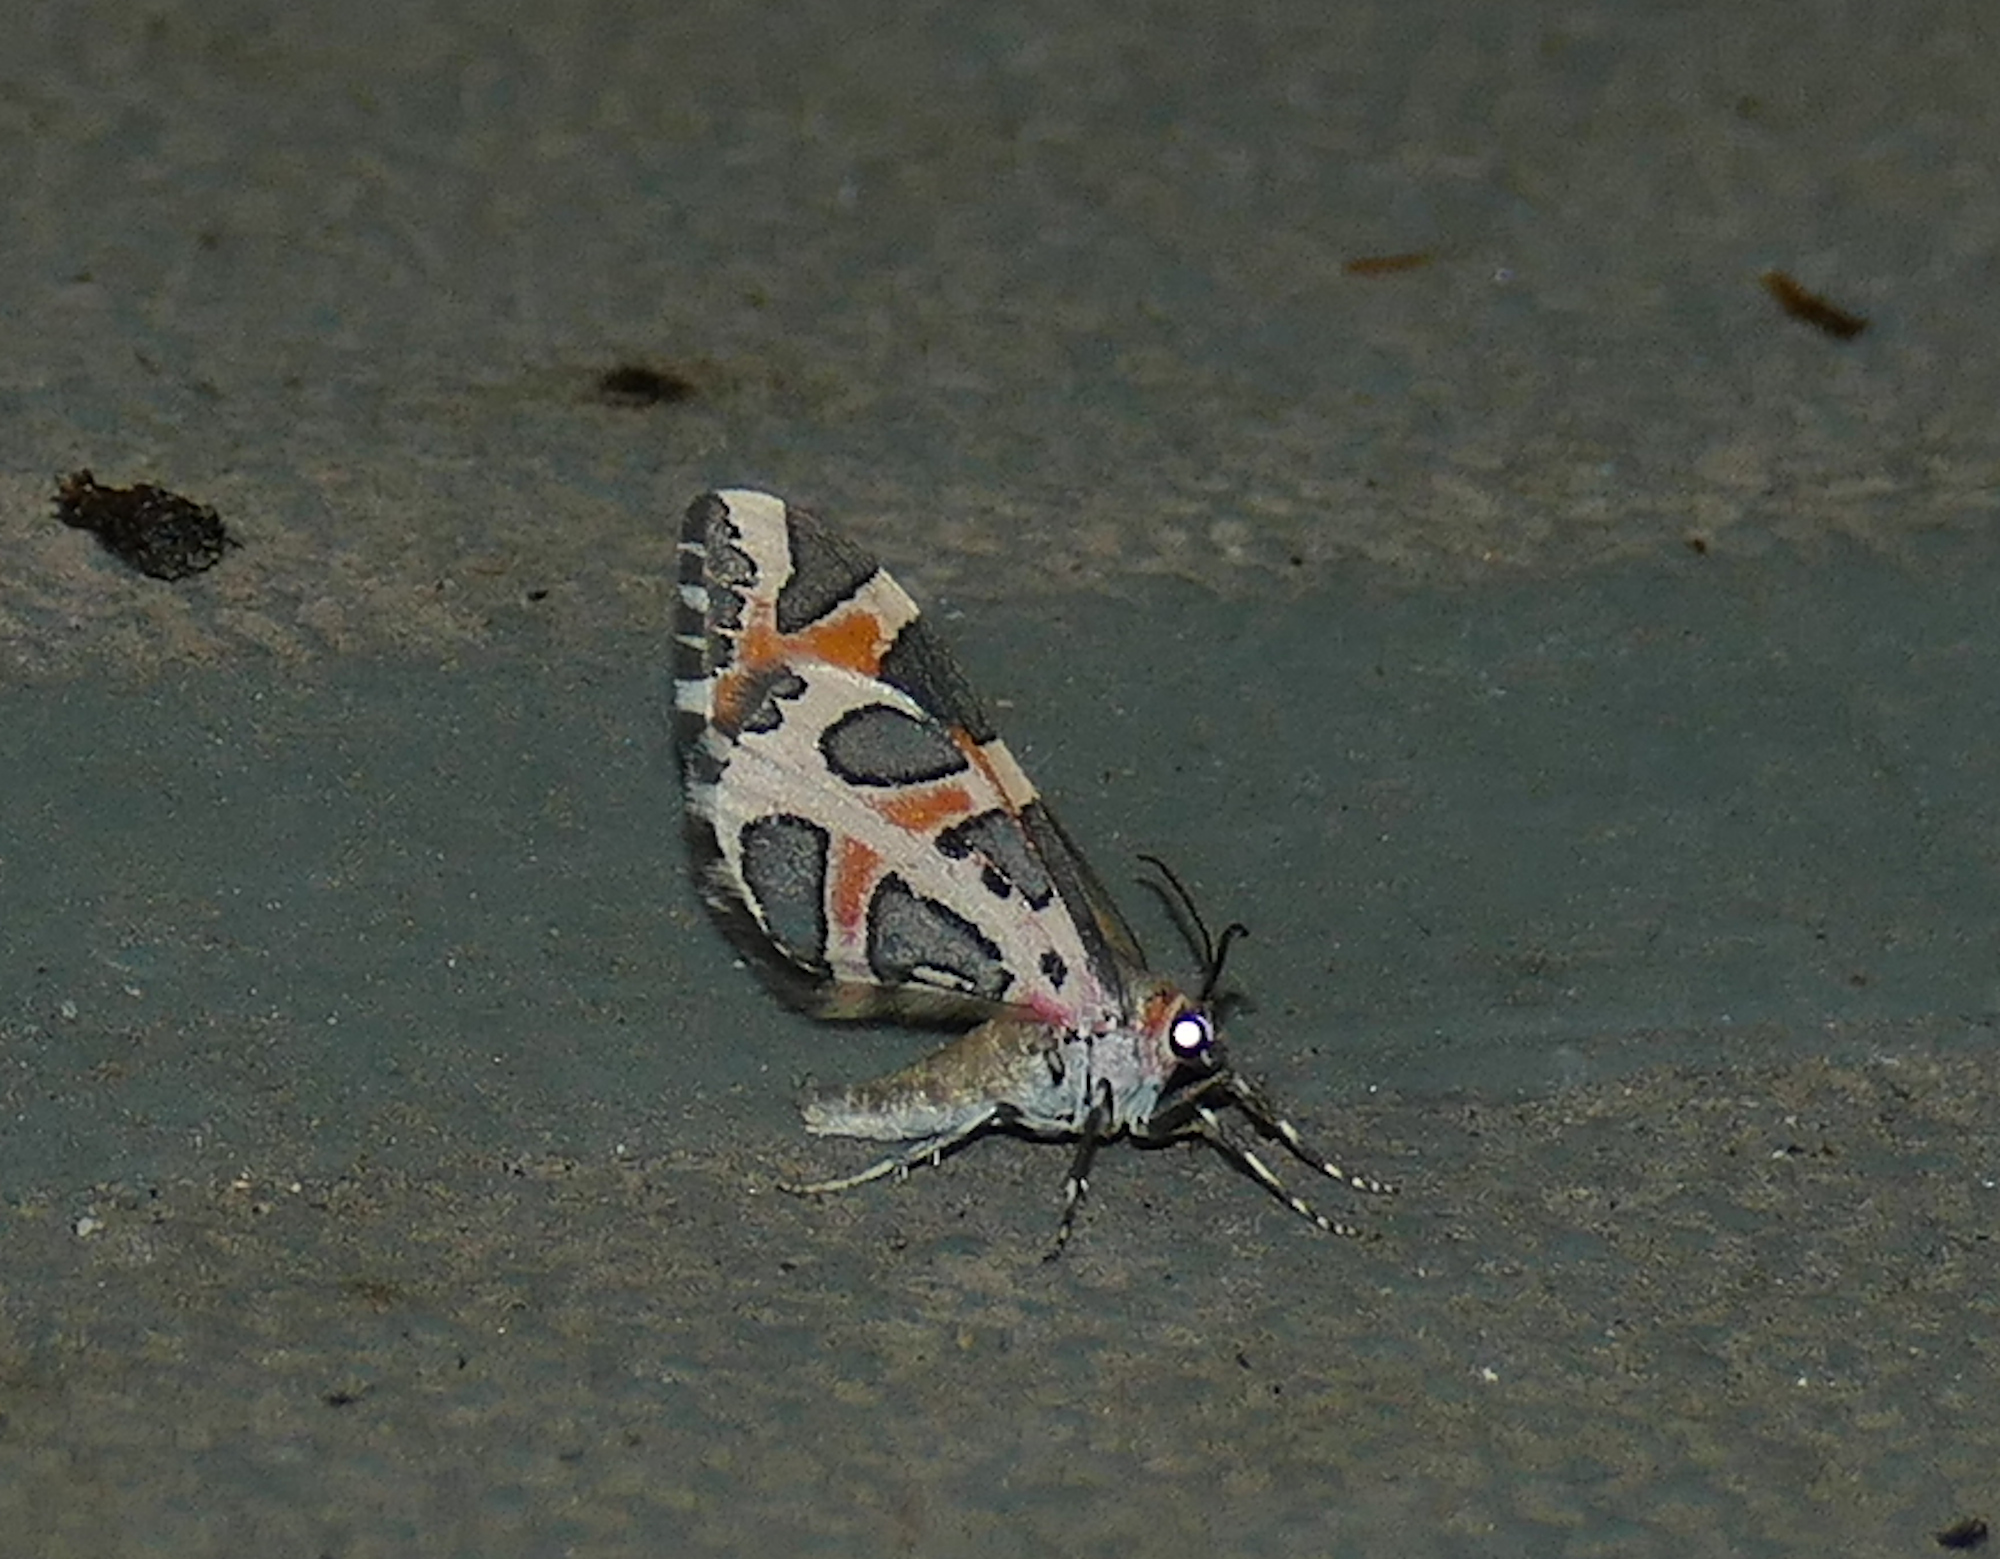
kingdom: Animalia
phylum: Arthropoda
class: Insecta
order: Lepidoptera
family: Geometridae
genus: Stamnodes
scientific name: Stamnodes deceptiva
